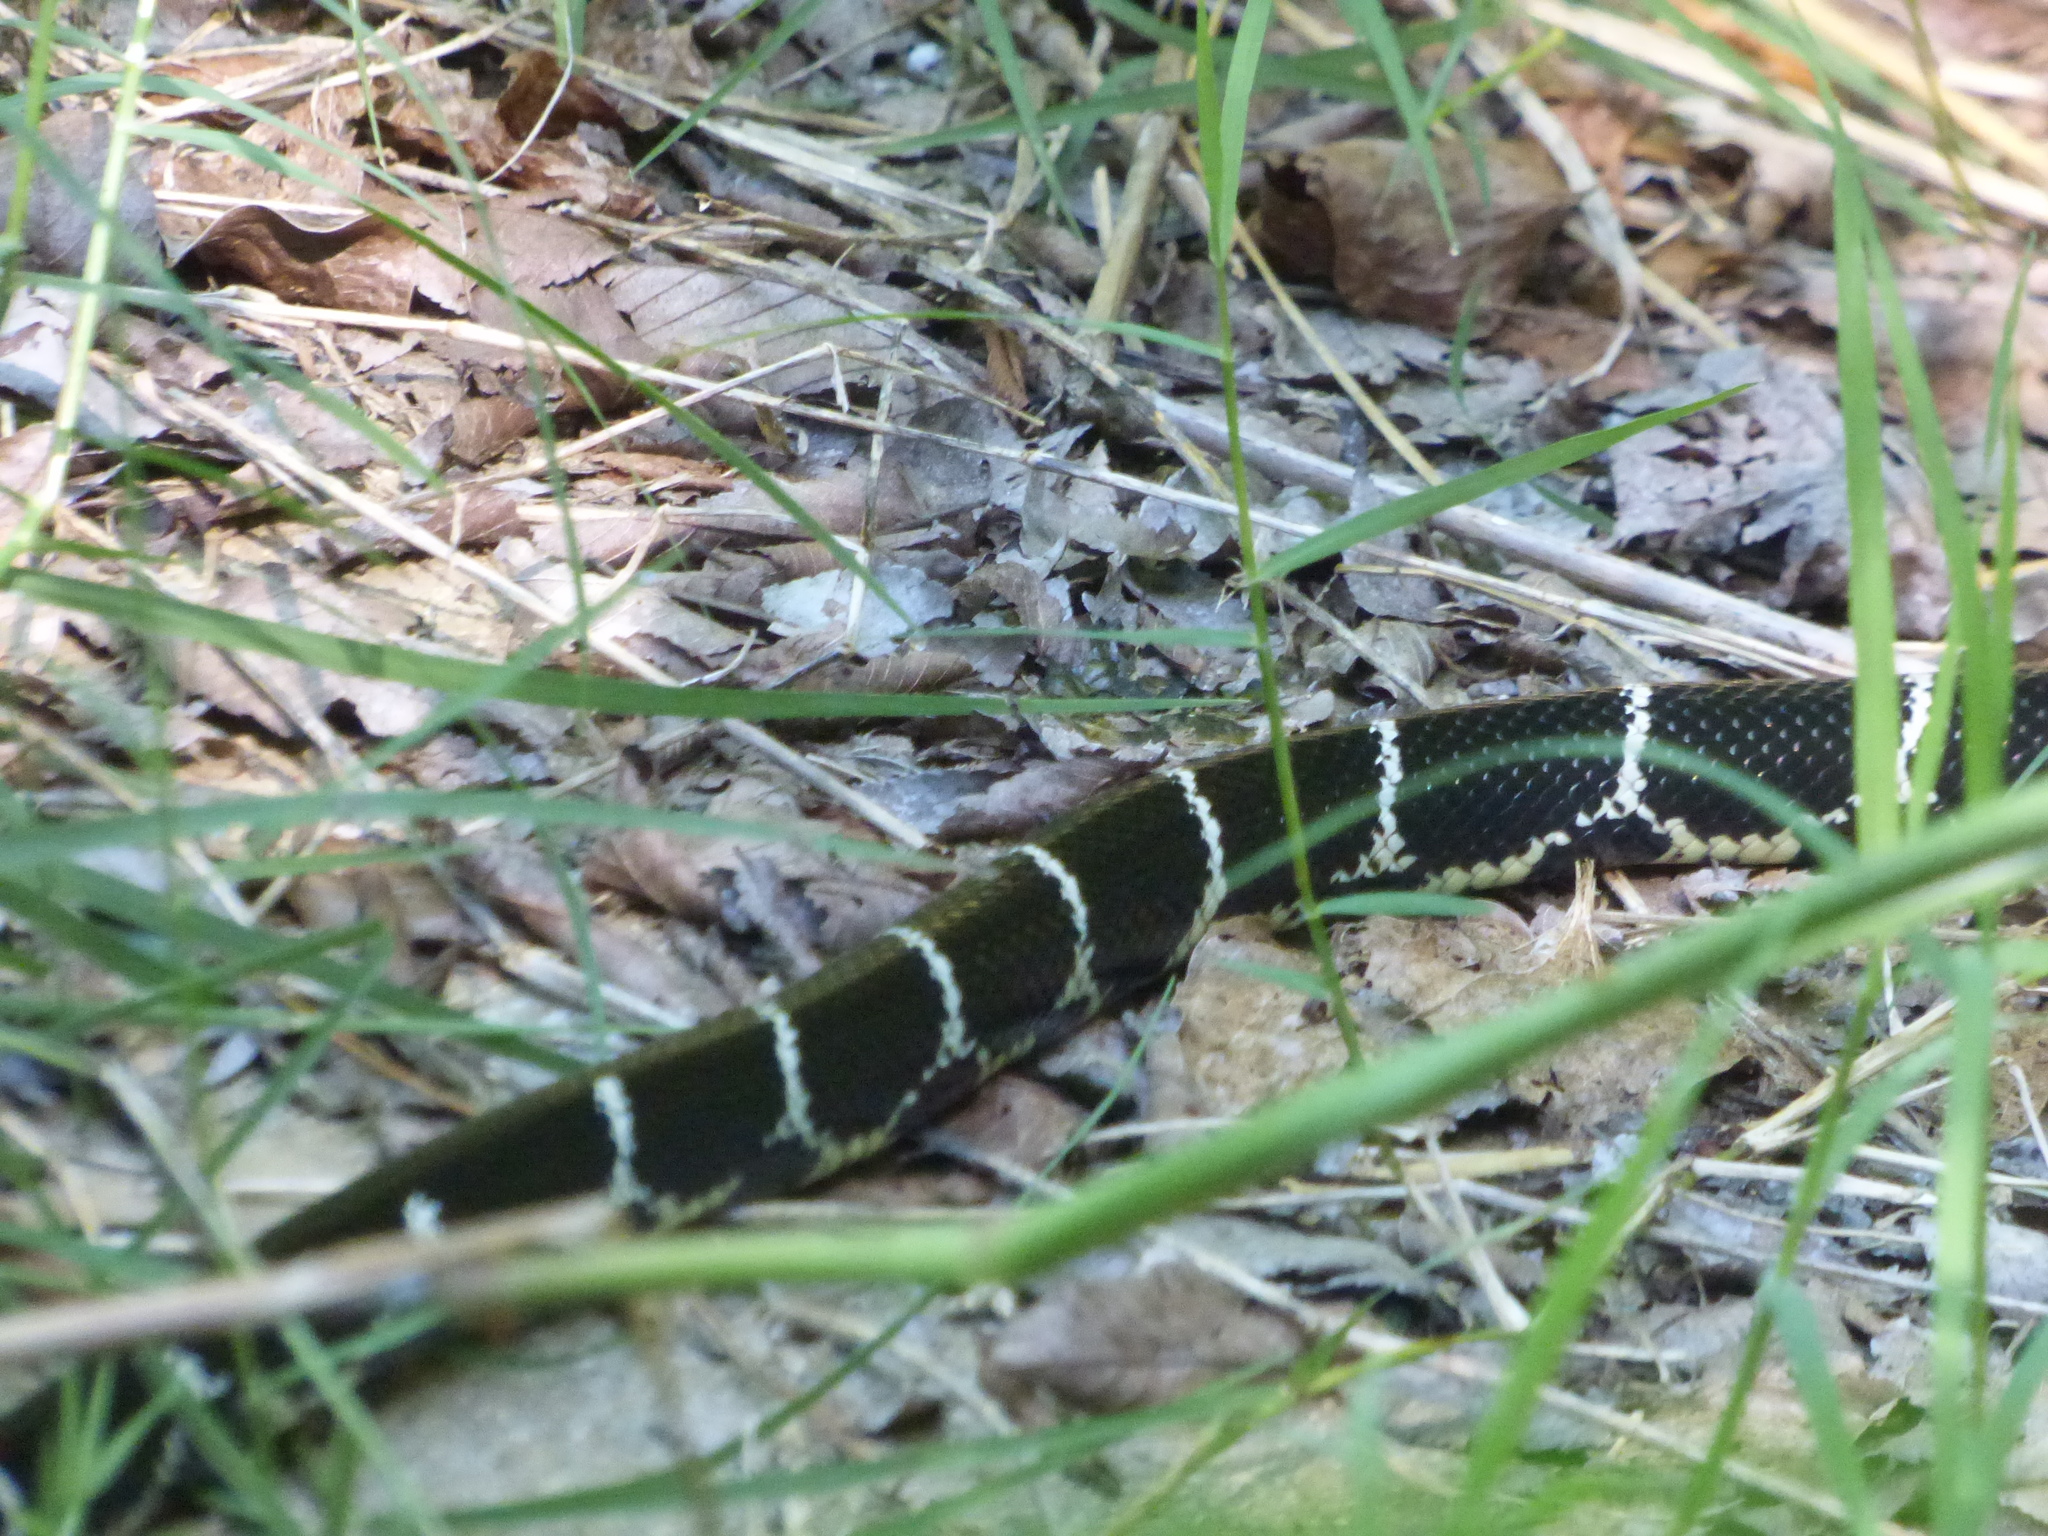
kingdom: Animalia
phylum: Chordata
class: Squamata
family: Colubridae
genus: Lampropeltis
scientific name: Lampropeltis getula
